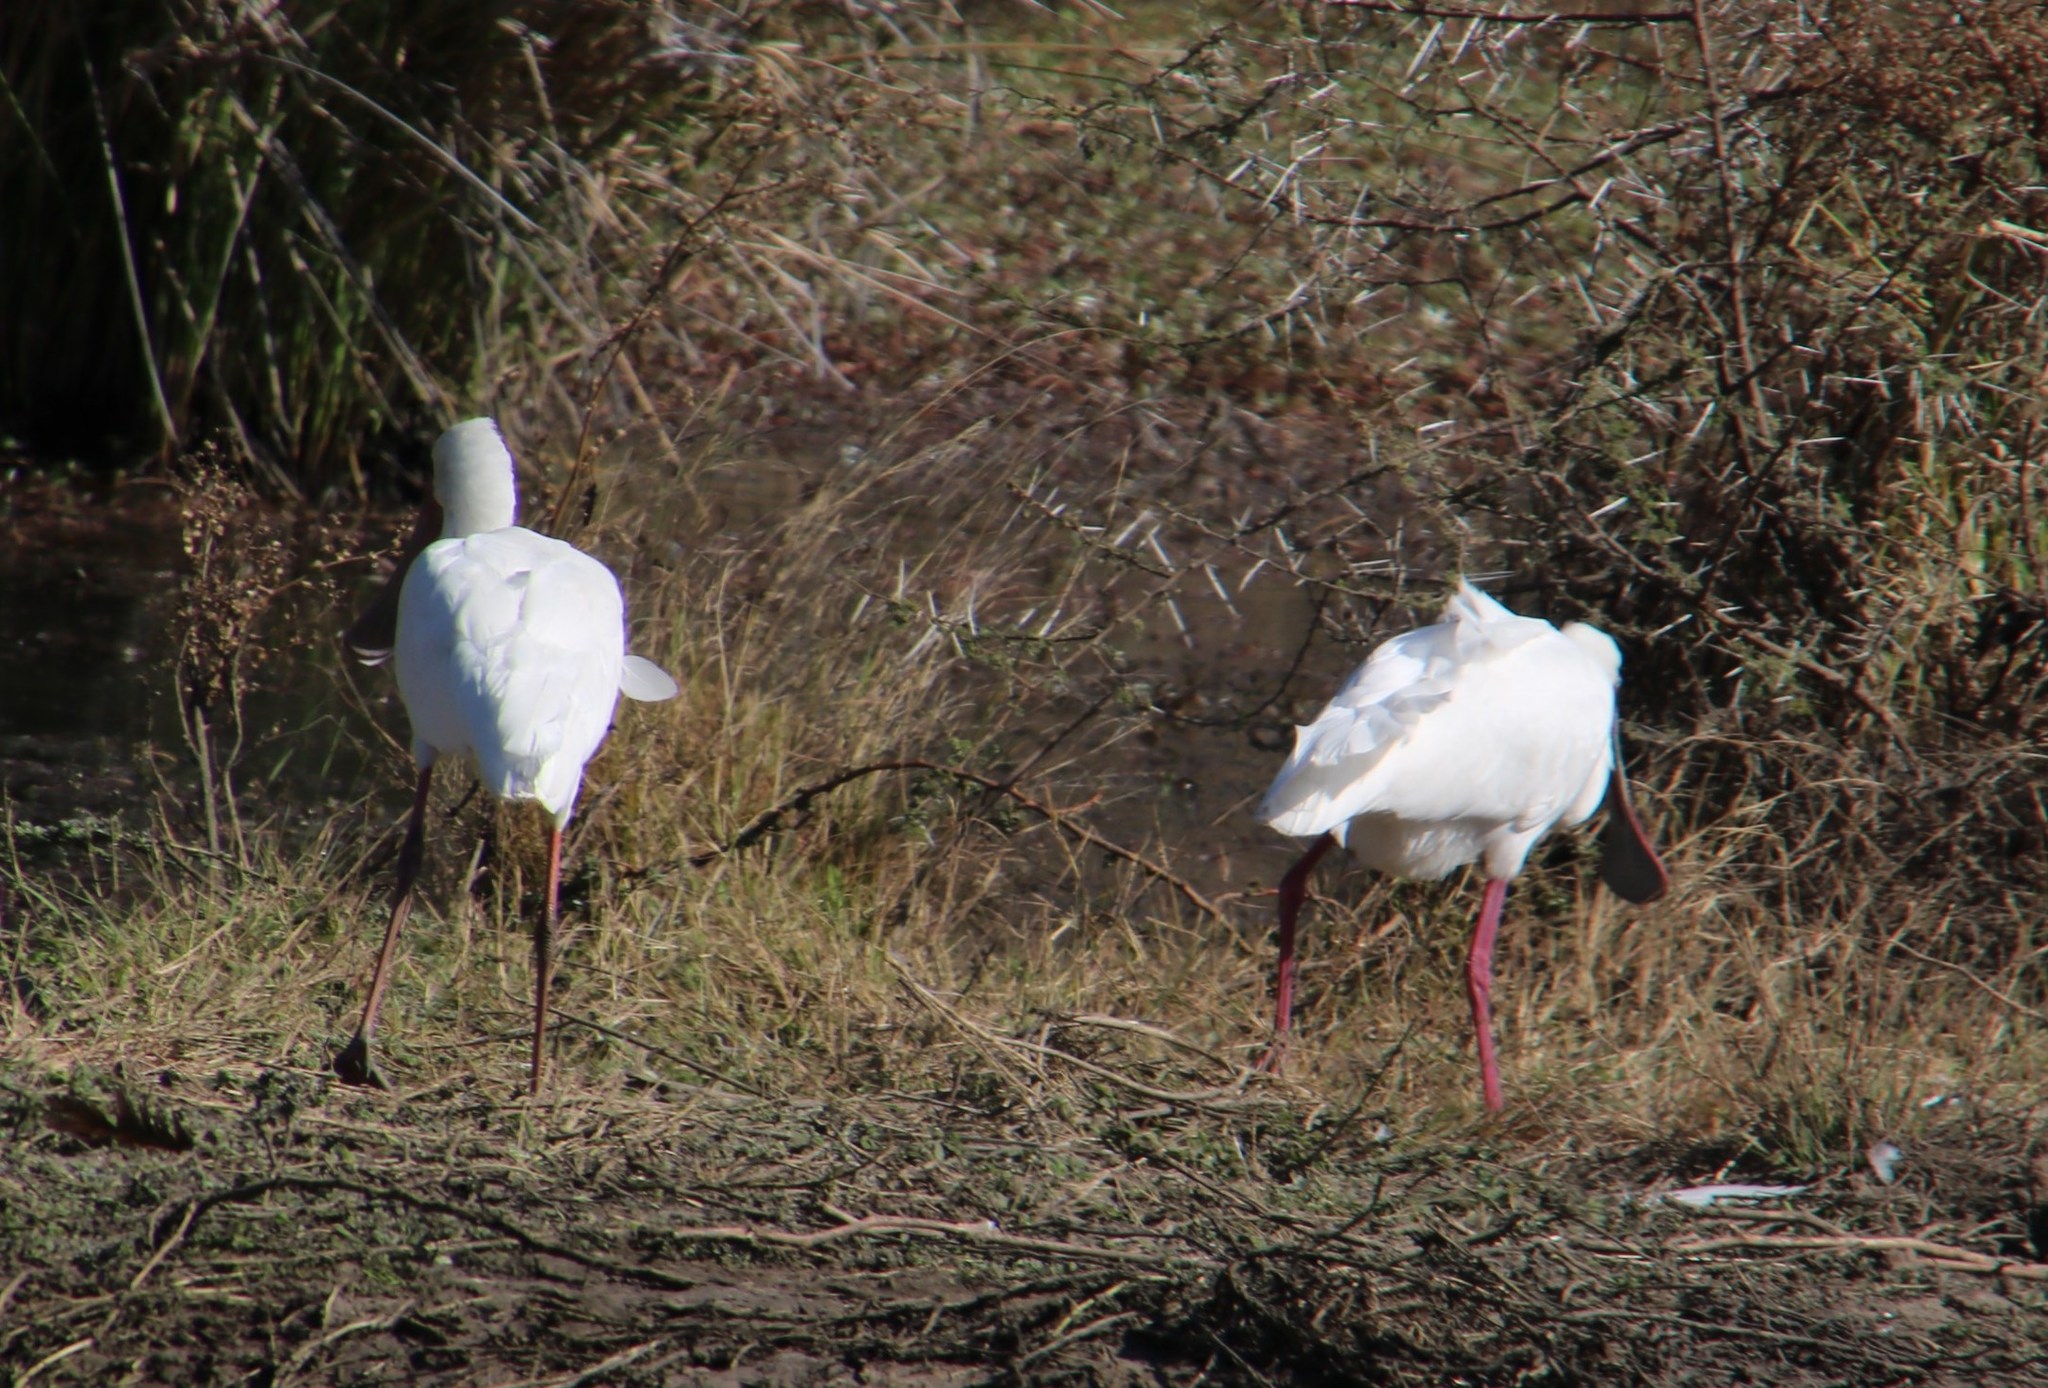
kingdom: Animalia
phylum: Chordata
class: Aves
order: Pelecaniformes
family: Threskiornithidae
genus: Platalea
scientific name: Platalea alba
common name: African spoonbill
